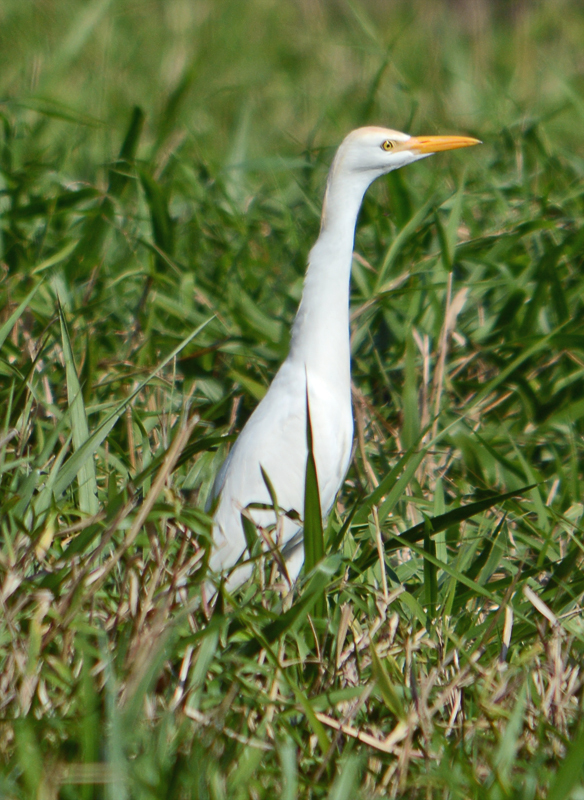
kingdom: Animalia
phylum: Chordata
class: Aves
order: Pelecaniformes
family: Ardeidae
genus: Bubulcus
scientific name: Bubulcus ibis
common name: Cattle egret
